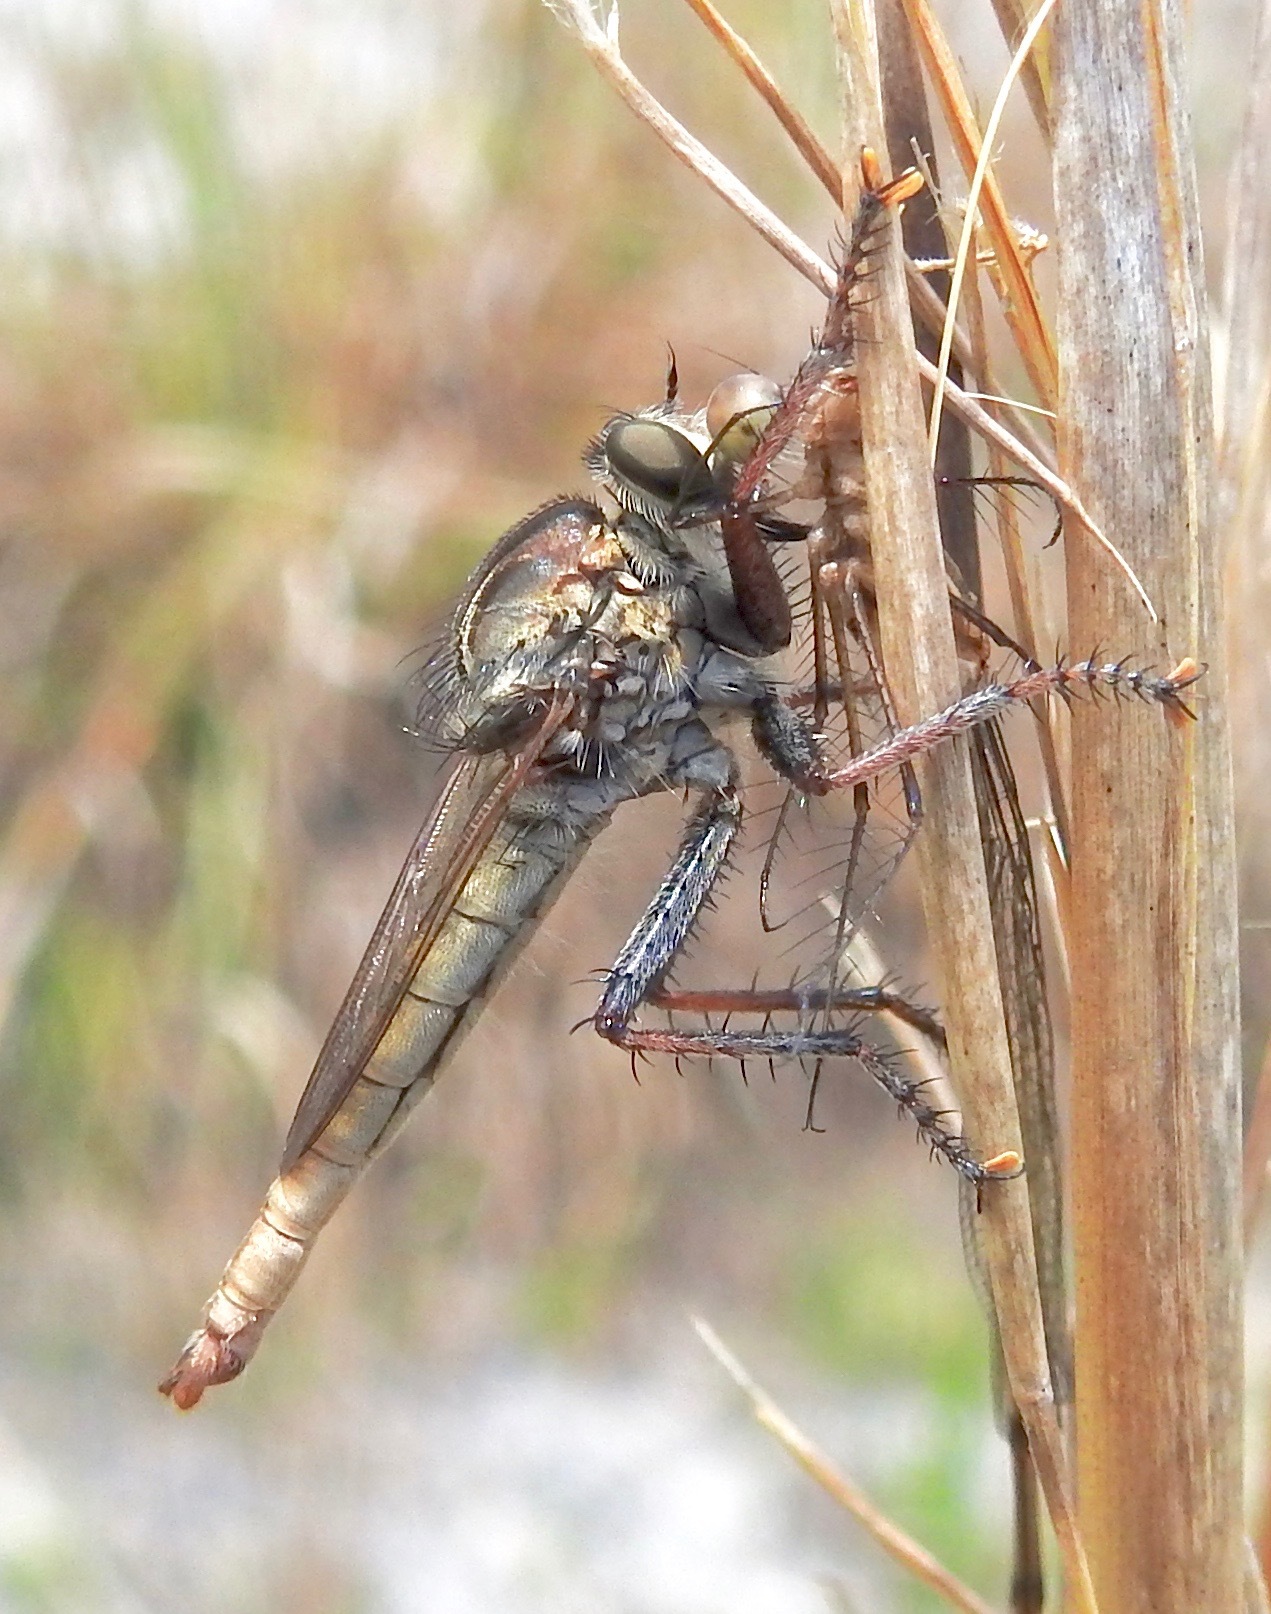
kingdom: Animalia
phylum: Arthropoda
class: Insecta
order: Diptera
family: Asilidae
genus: Proctacanthus
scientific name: Proctacanthus brevipennis
